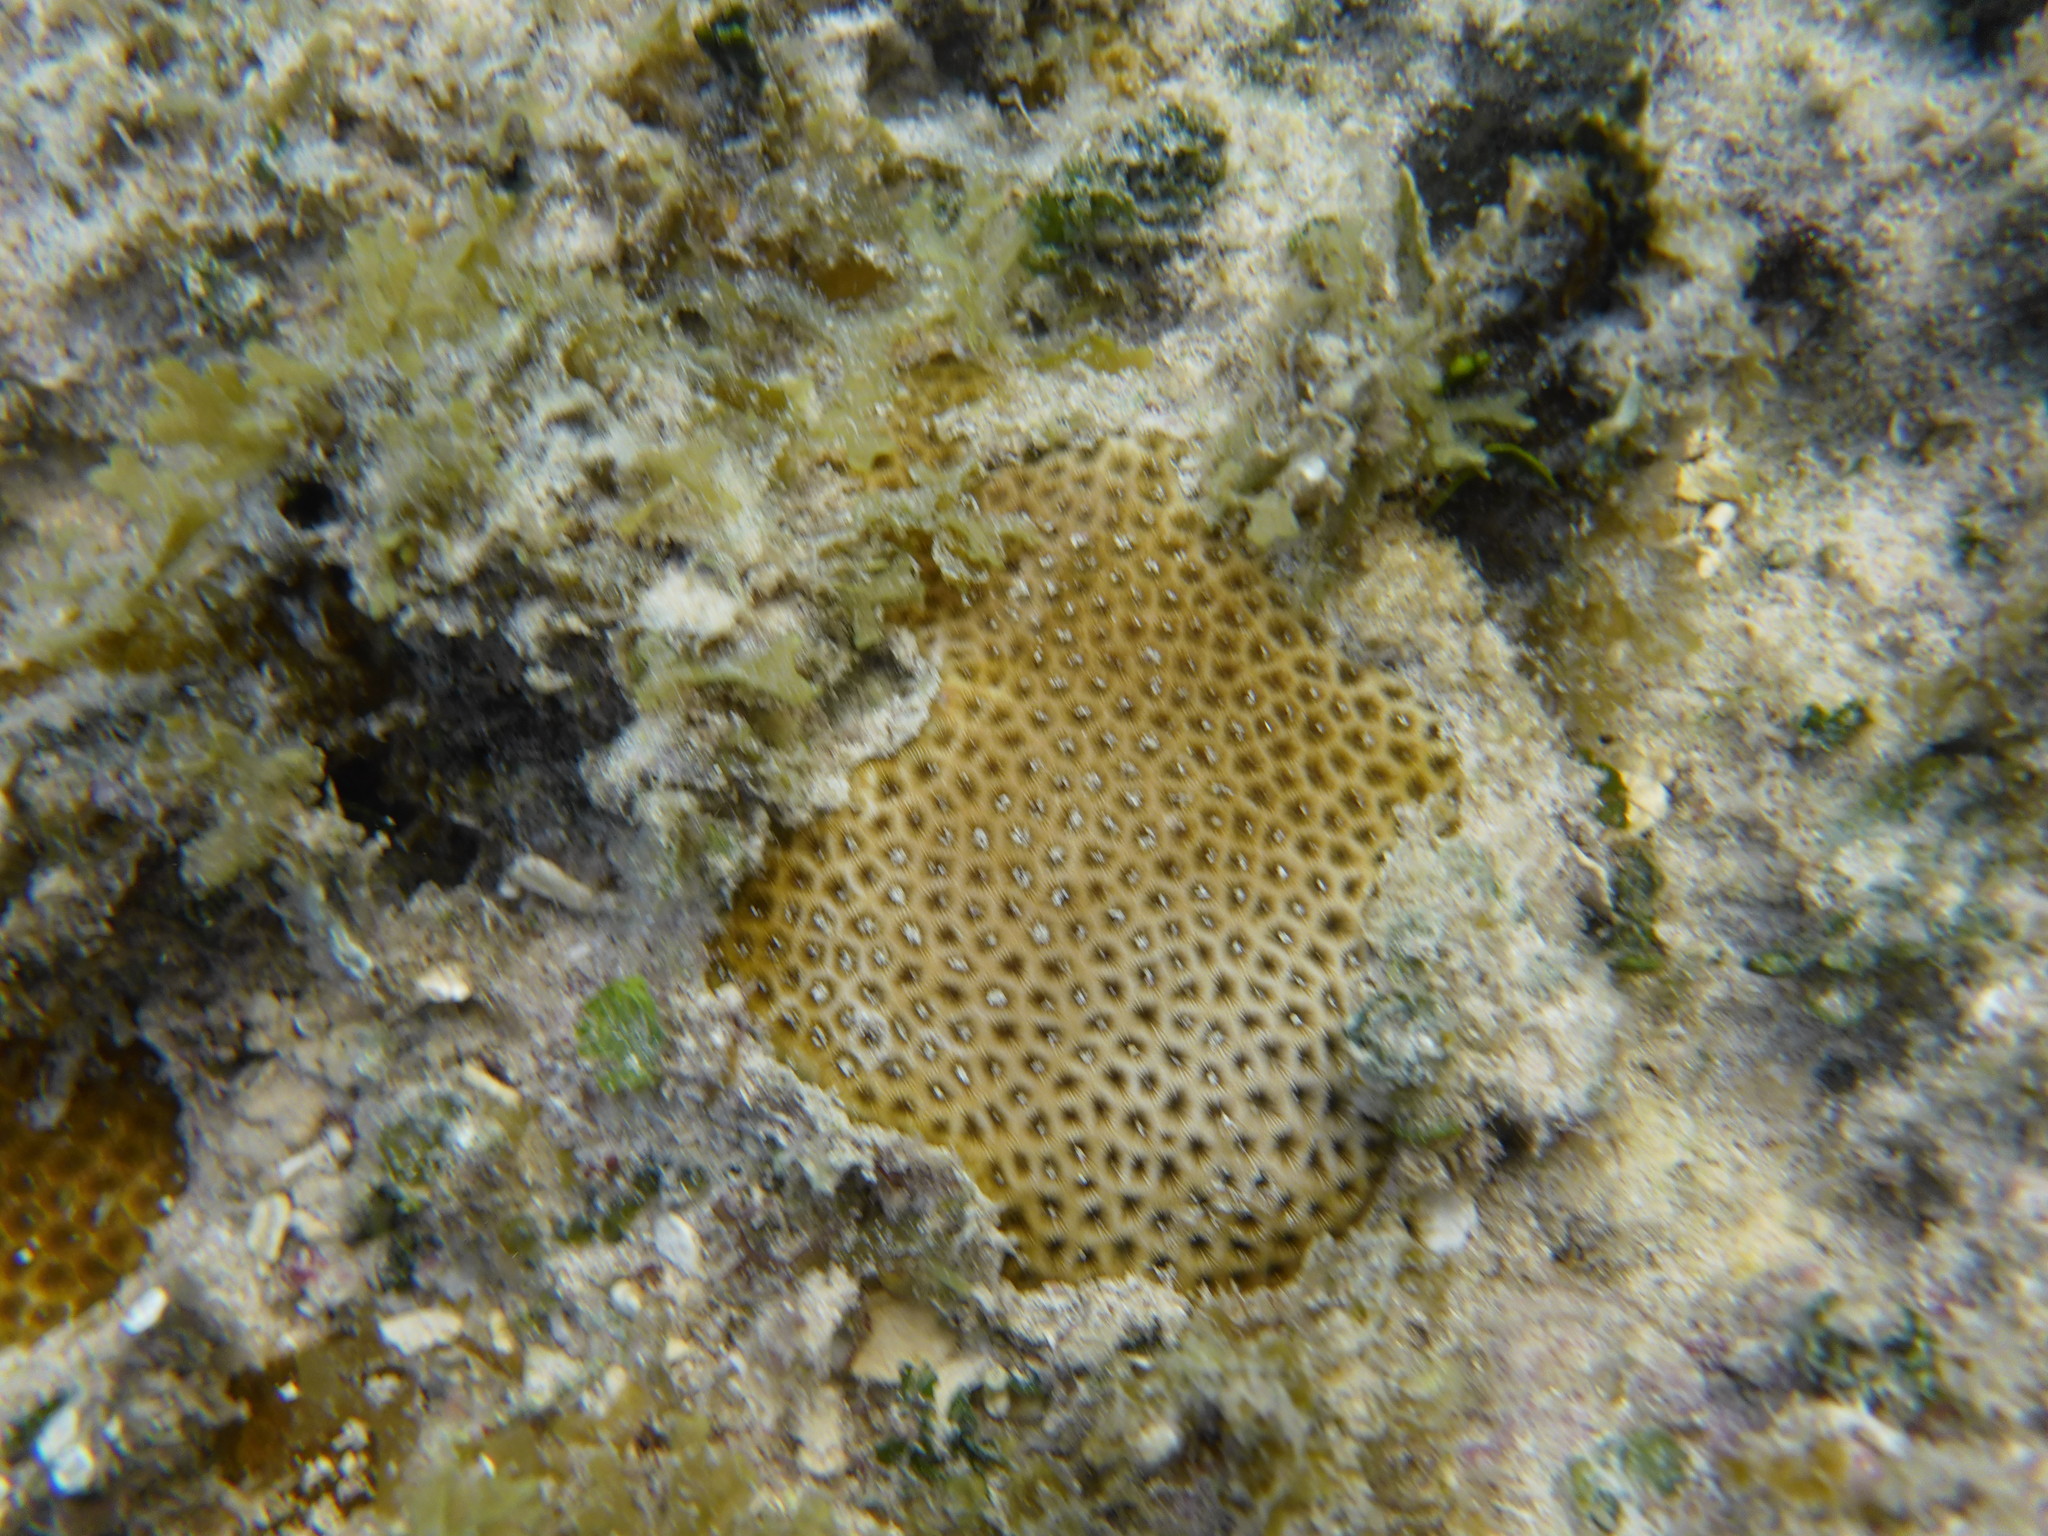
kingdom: Animalia
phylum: Cnidaria
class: Anthozoa
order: Scleractinia
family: Rhizangiidae
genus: Siderastrea
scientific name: Siderastrea radians
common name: Lesser starlet coral
